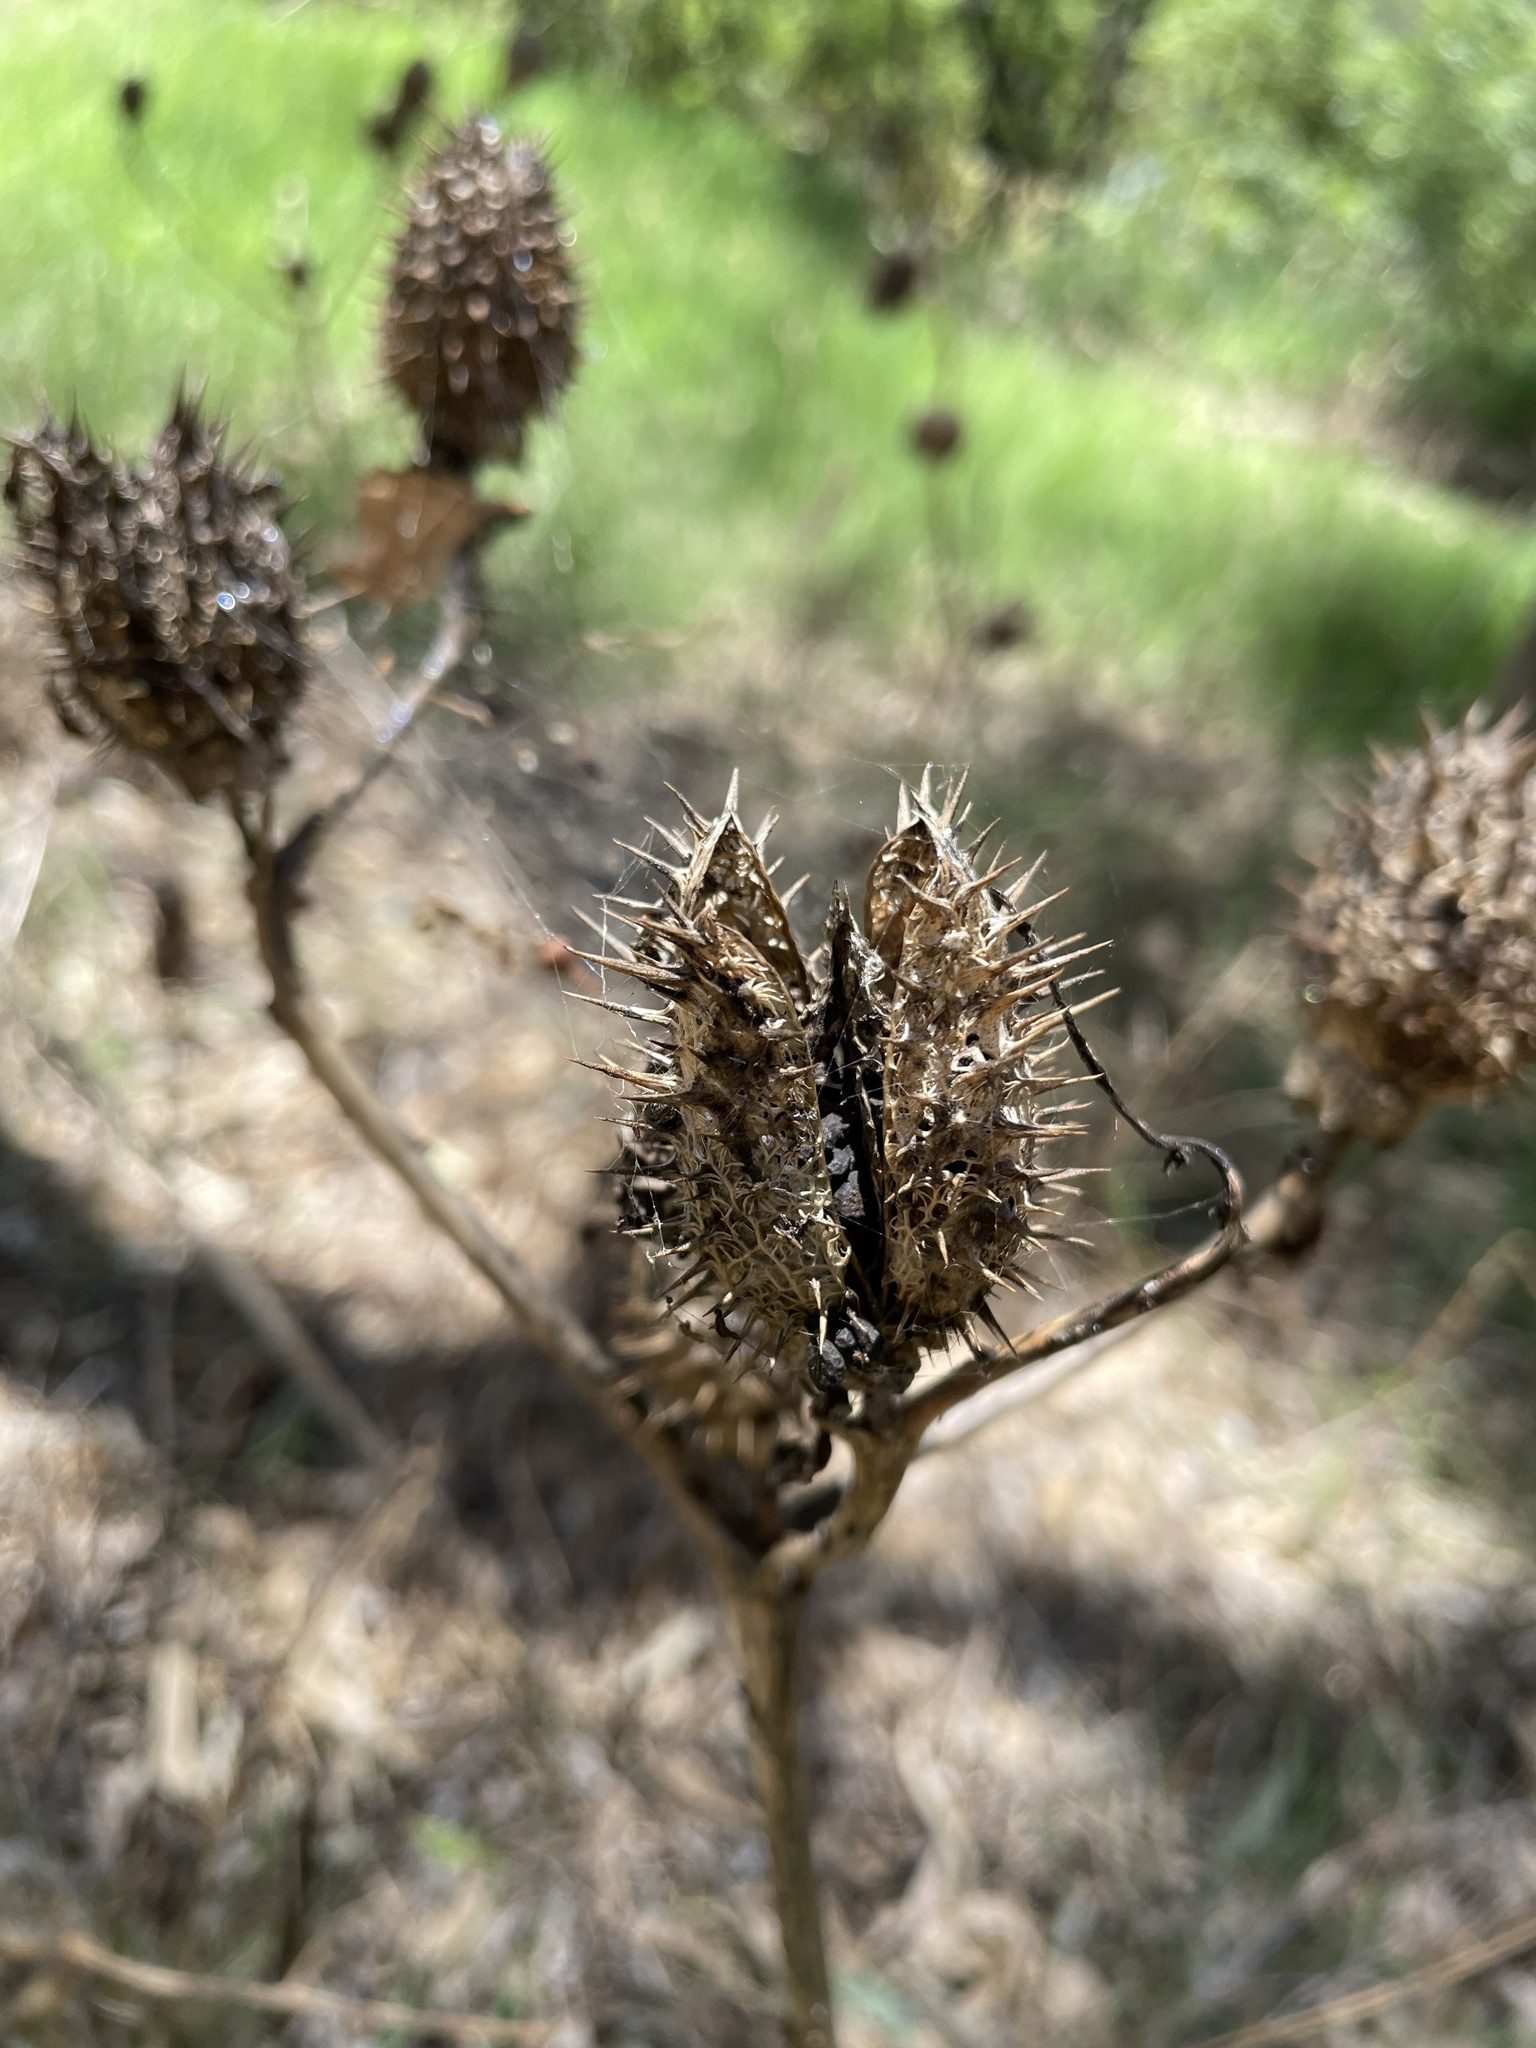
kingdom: Plantae
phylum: Tracheophyta
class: Magnoliopsida
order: Solanales
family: Solanaceae
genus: Datura
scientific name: Datura stramonium
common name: Thorn-apple
